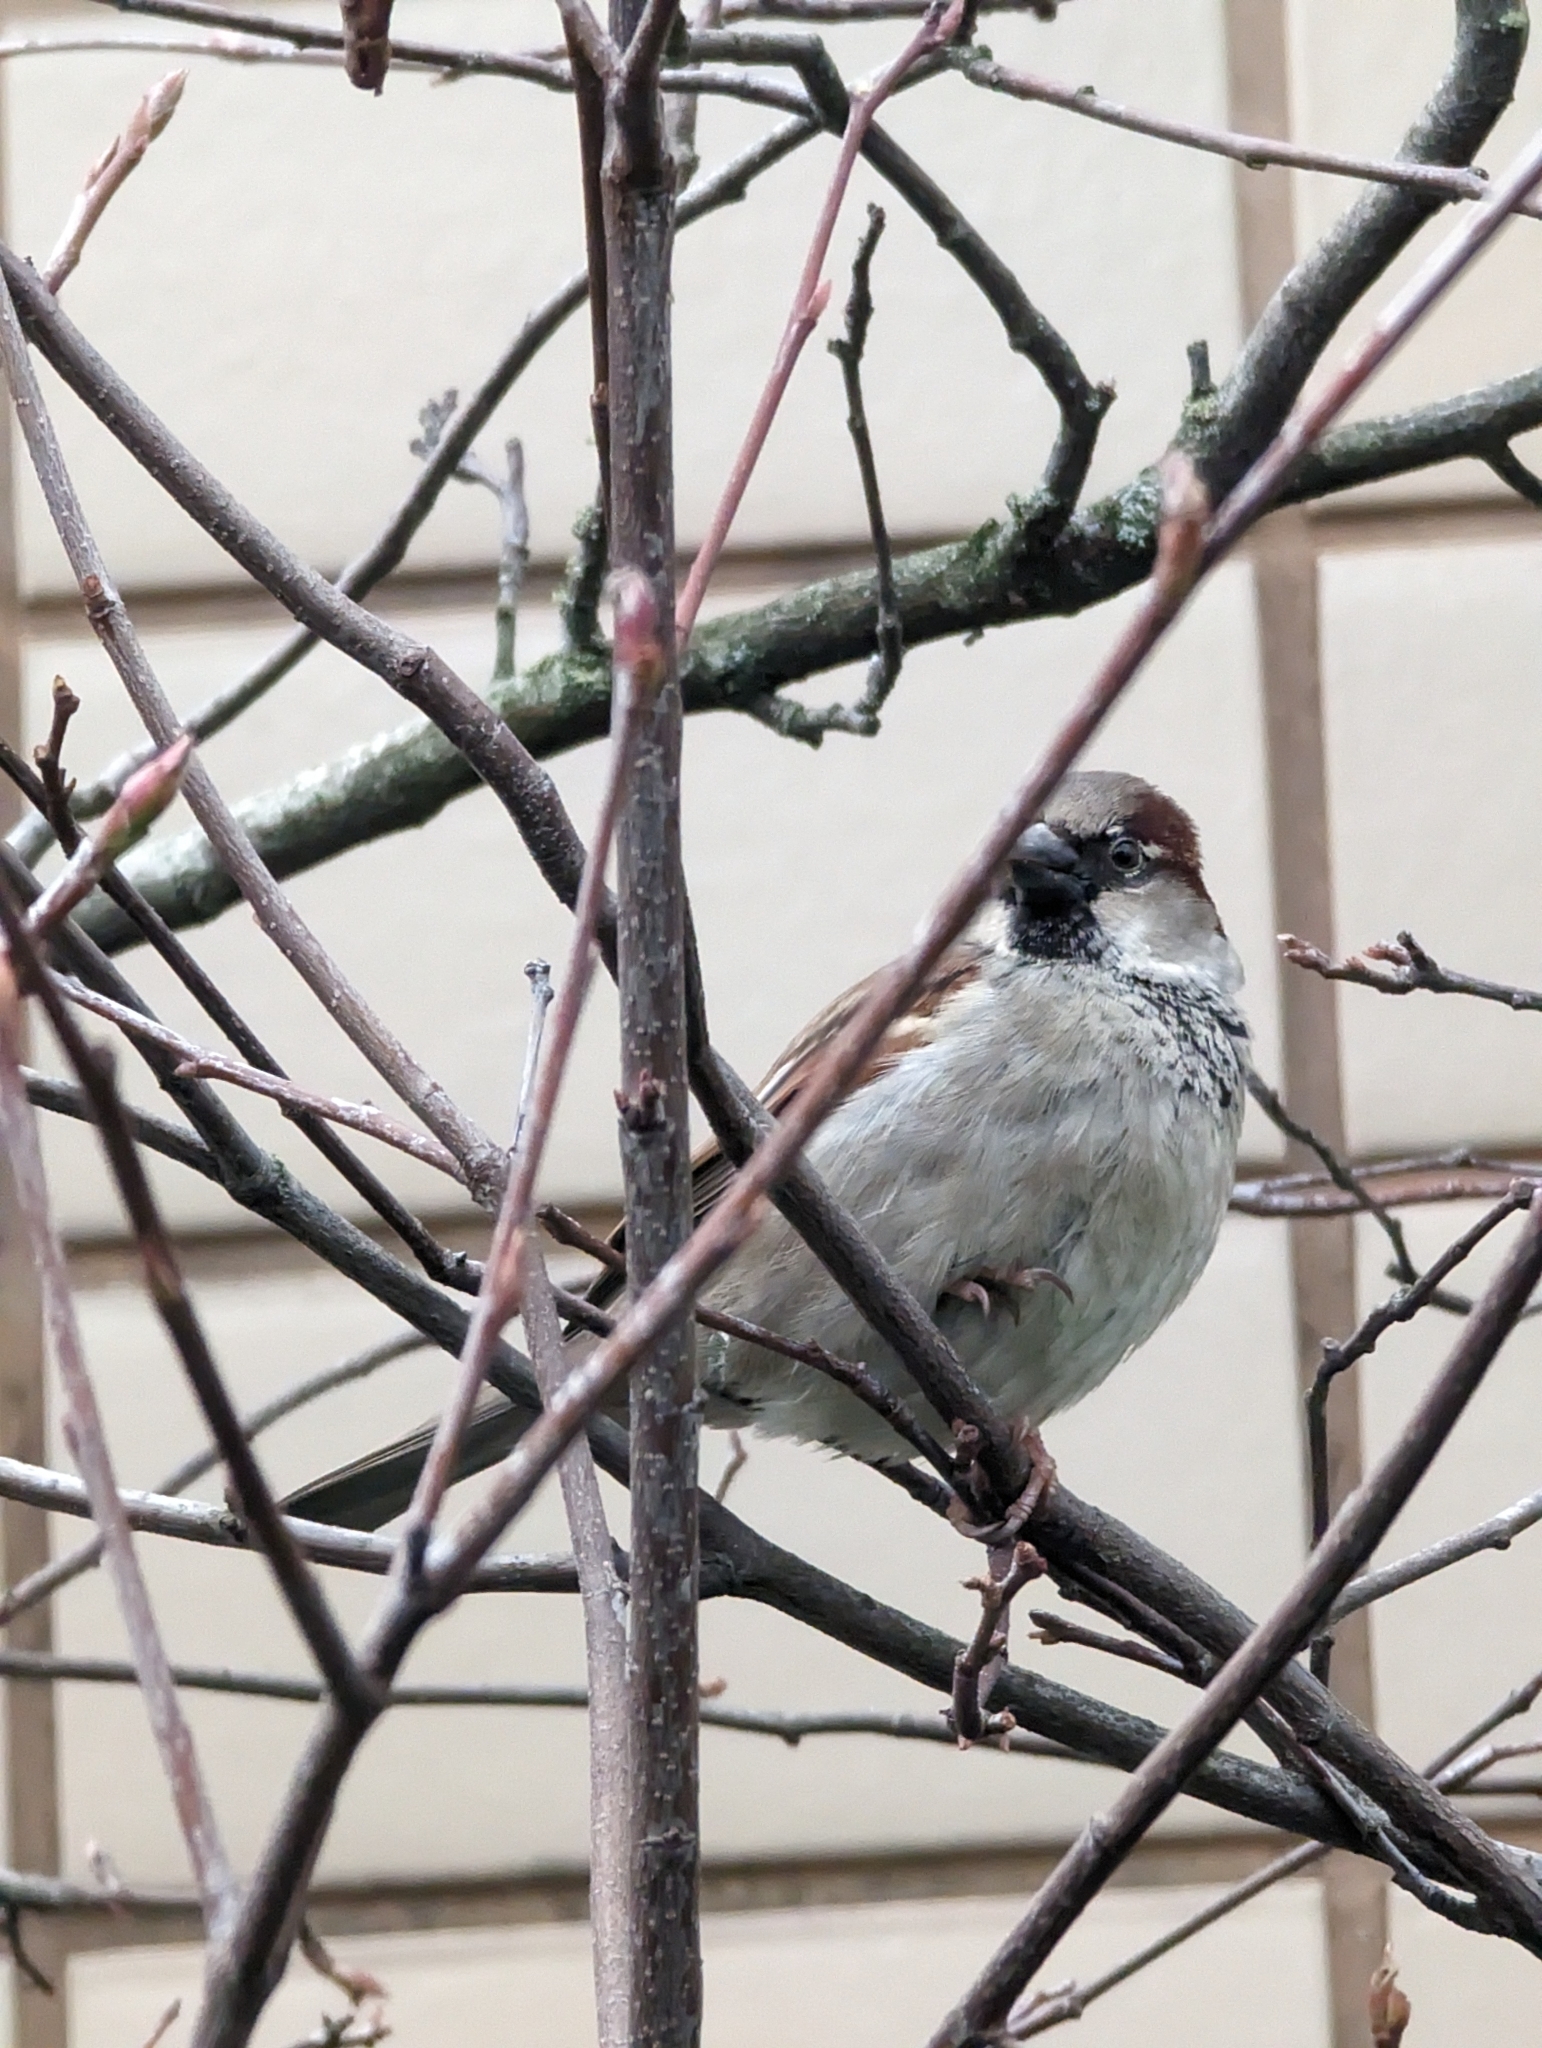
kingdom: Animalia
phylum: Chordata
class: Aves
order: Passeriformes
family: Passeridae
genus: Passer
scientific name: Passer domesticus
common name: House sparrow
